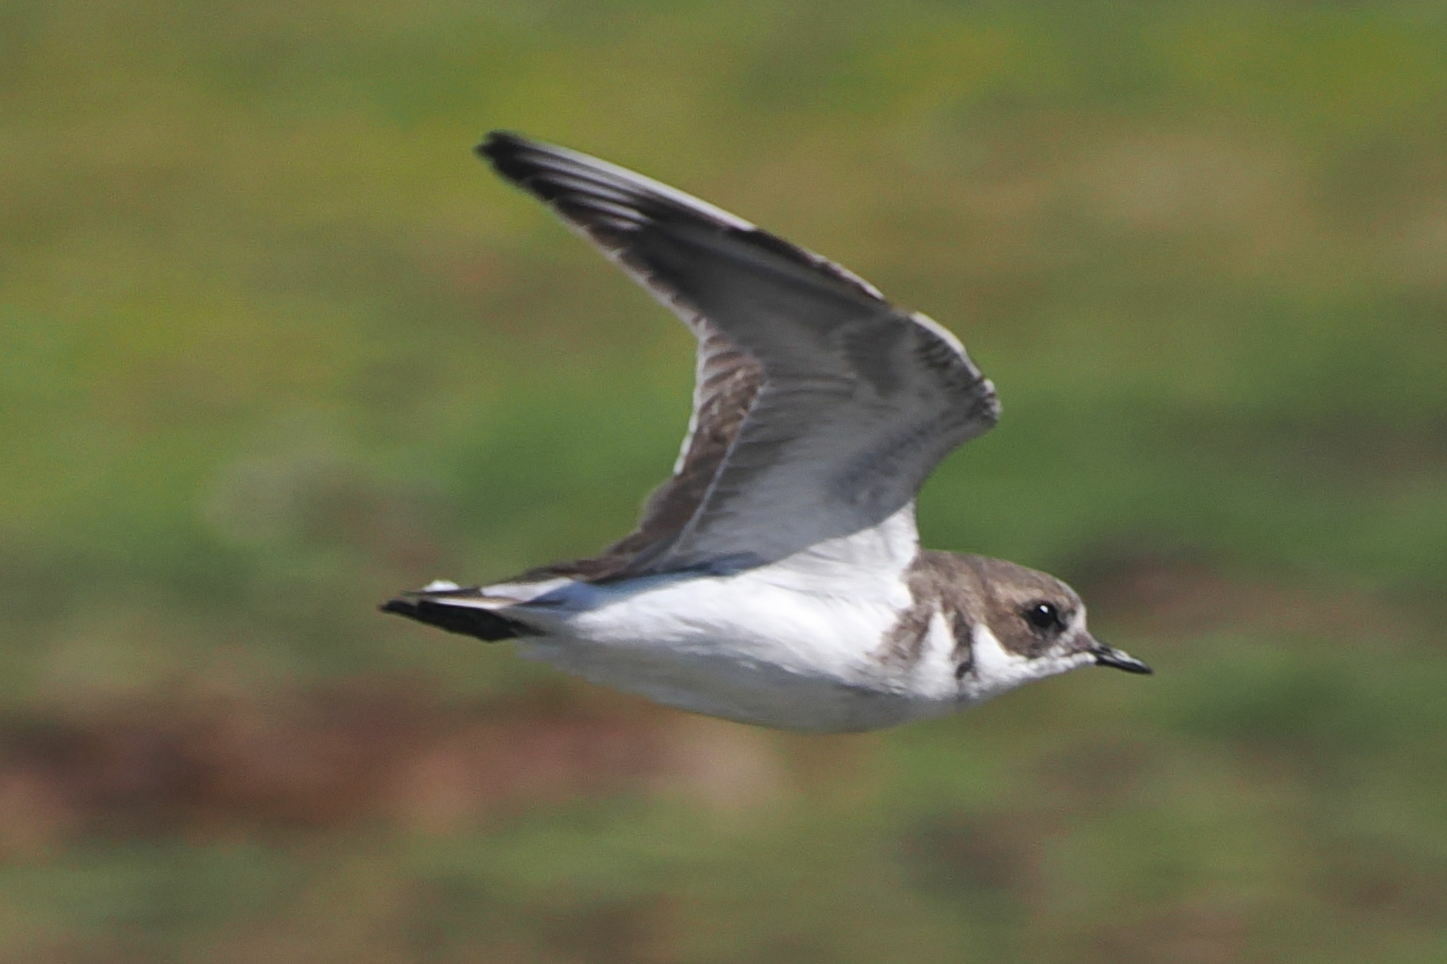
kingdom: Animalia
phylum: Chordata
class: Aves
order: Charadriiformes
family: Charadriidae
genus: Anarhynchus
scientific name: Anarhynchus
